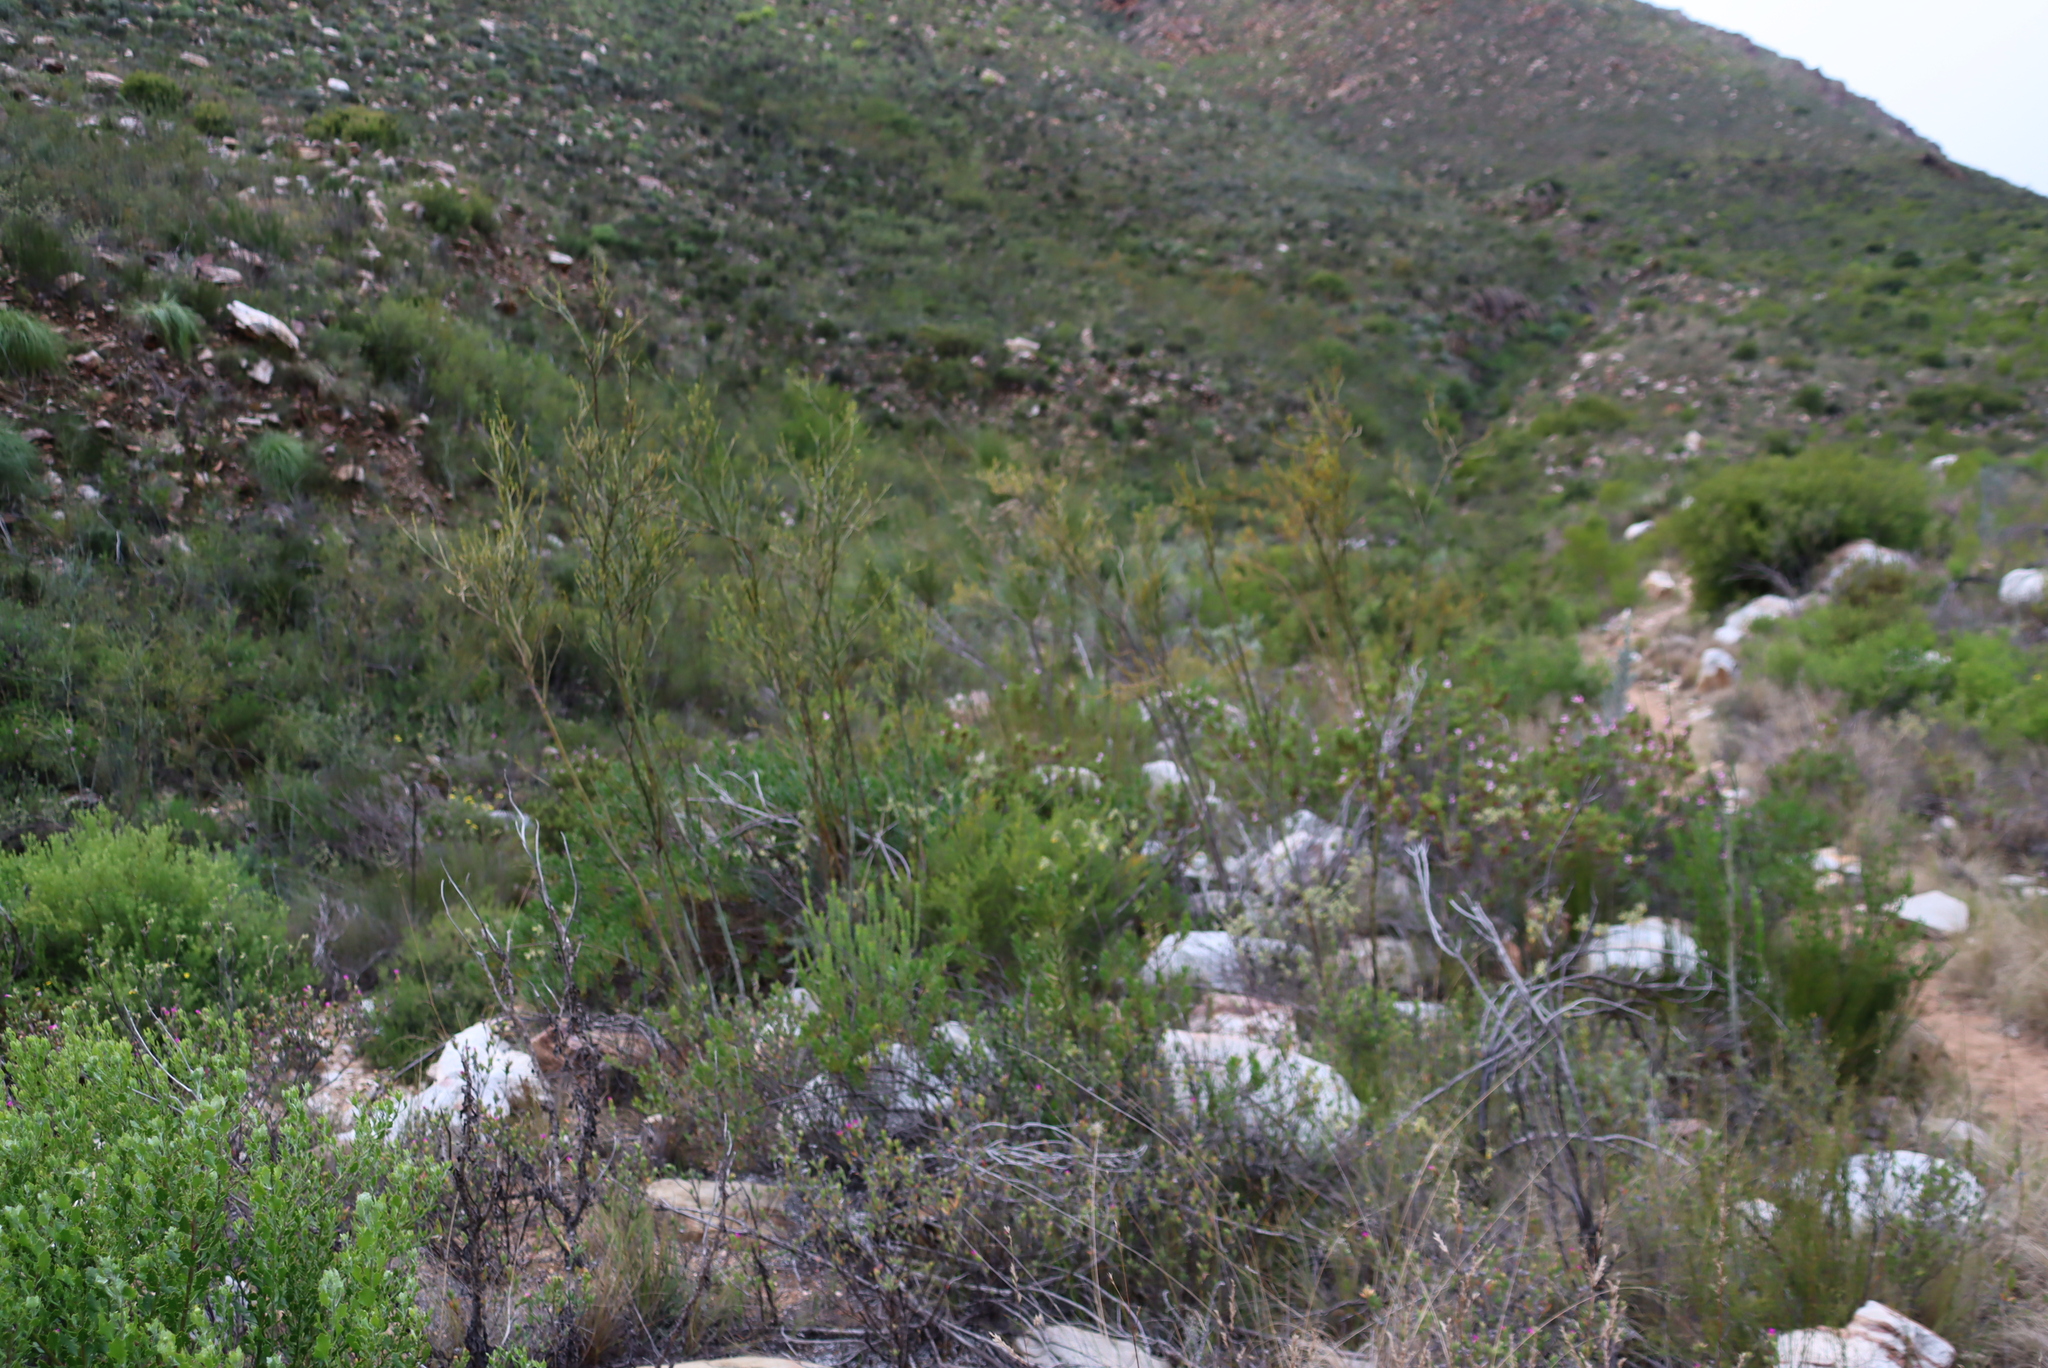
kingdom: Plantae
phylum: Tracheophyta
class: Magnoliopsida
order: Santalales
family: Thesiaceae
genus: Thesium
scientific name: Thesium strictum
